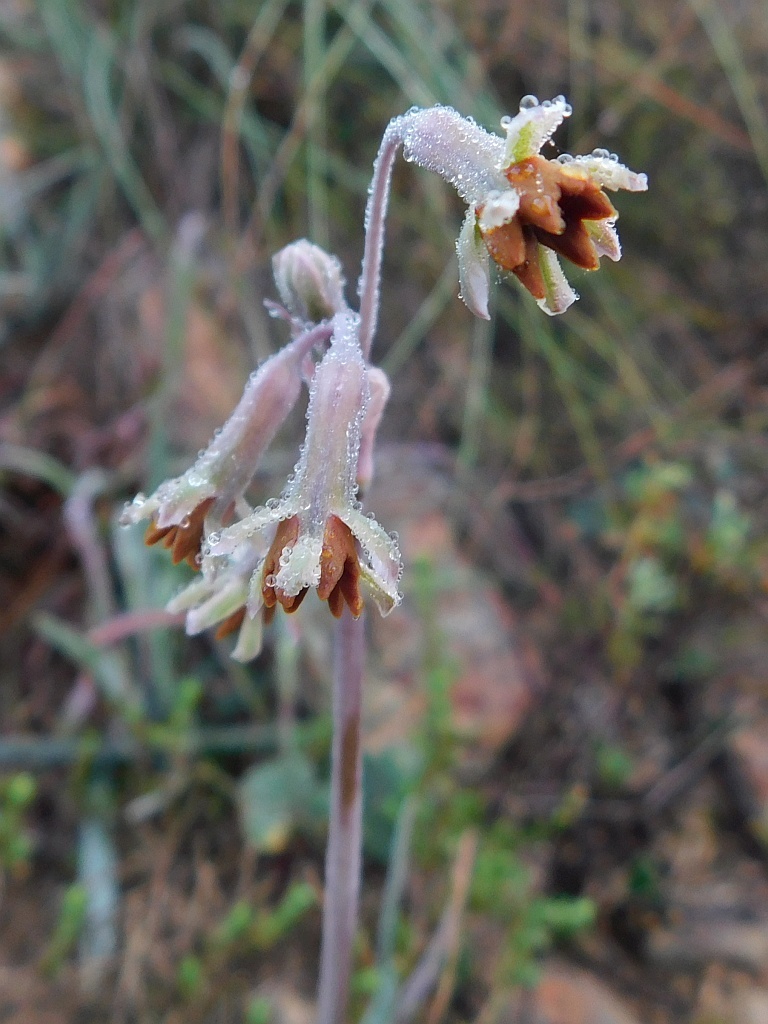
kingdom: Plantae
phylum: Tracheophyta
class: Liliopsida
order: Asparagales
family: Amaryllidaceae
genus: Tulbaghia
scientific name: Tulbaghia capensis
